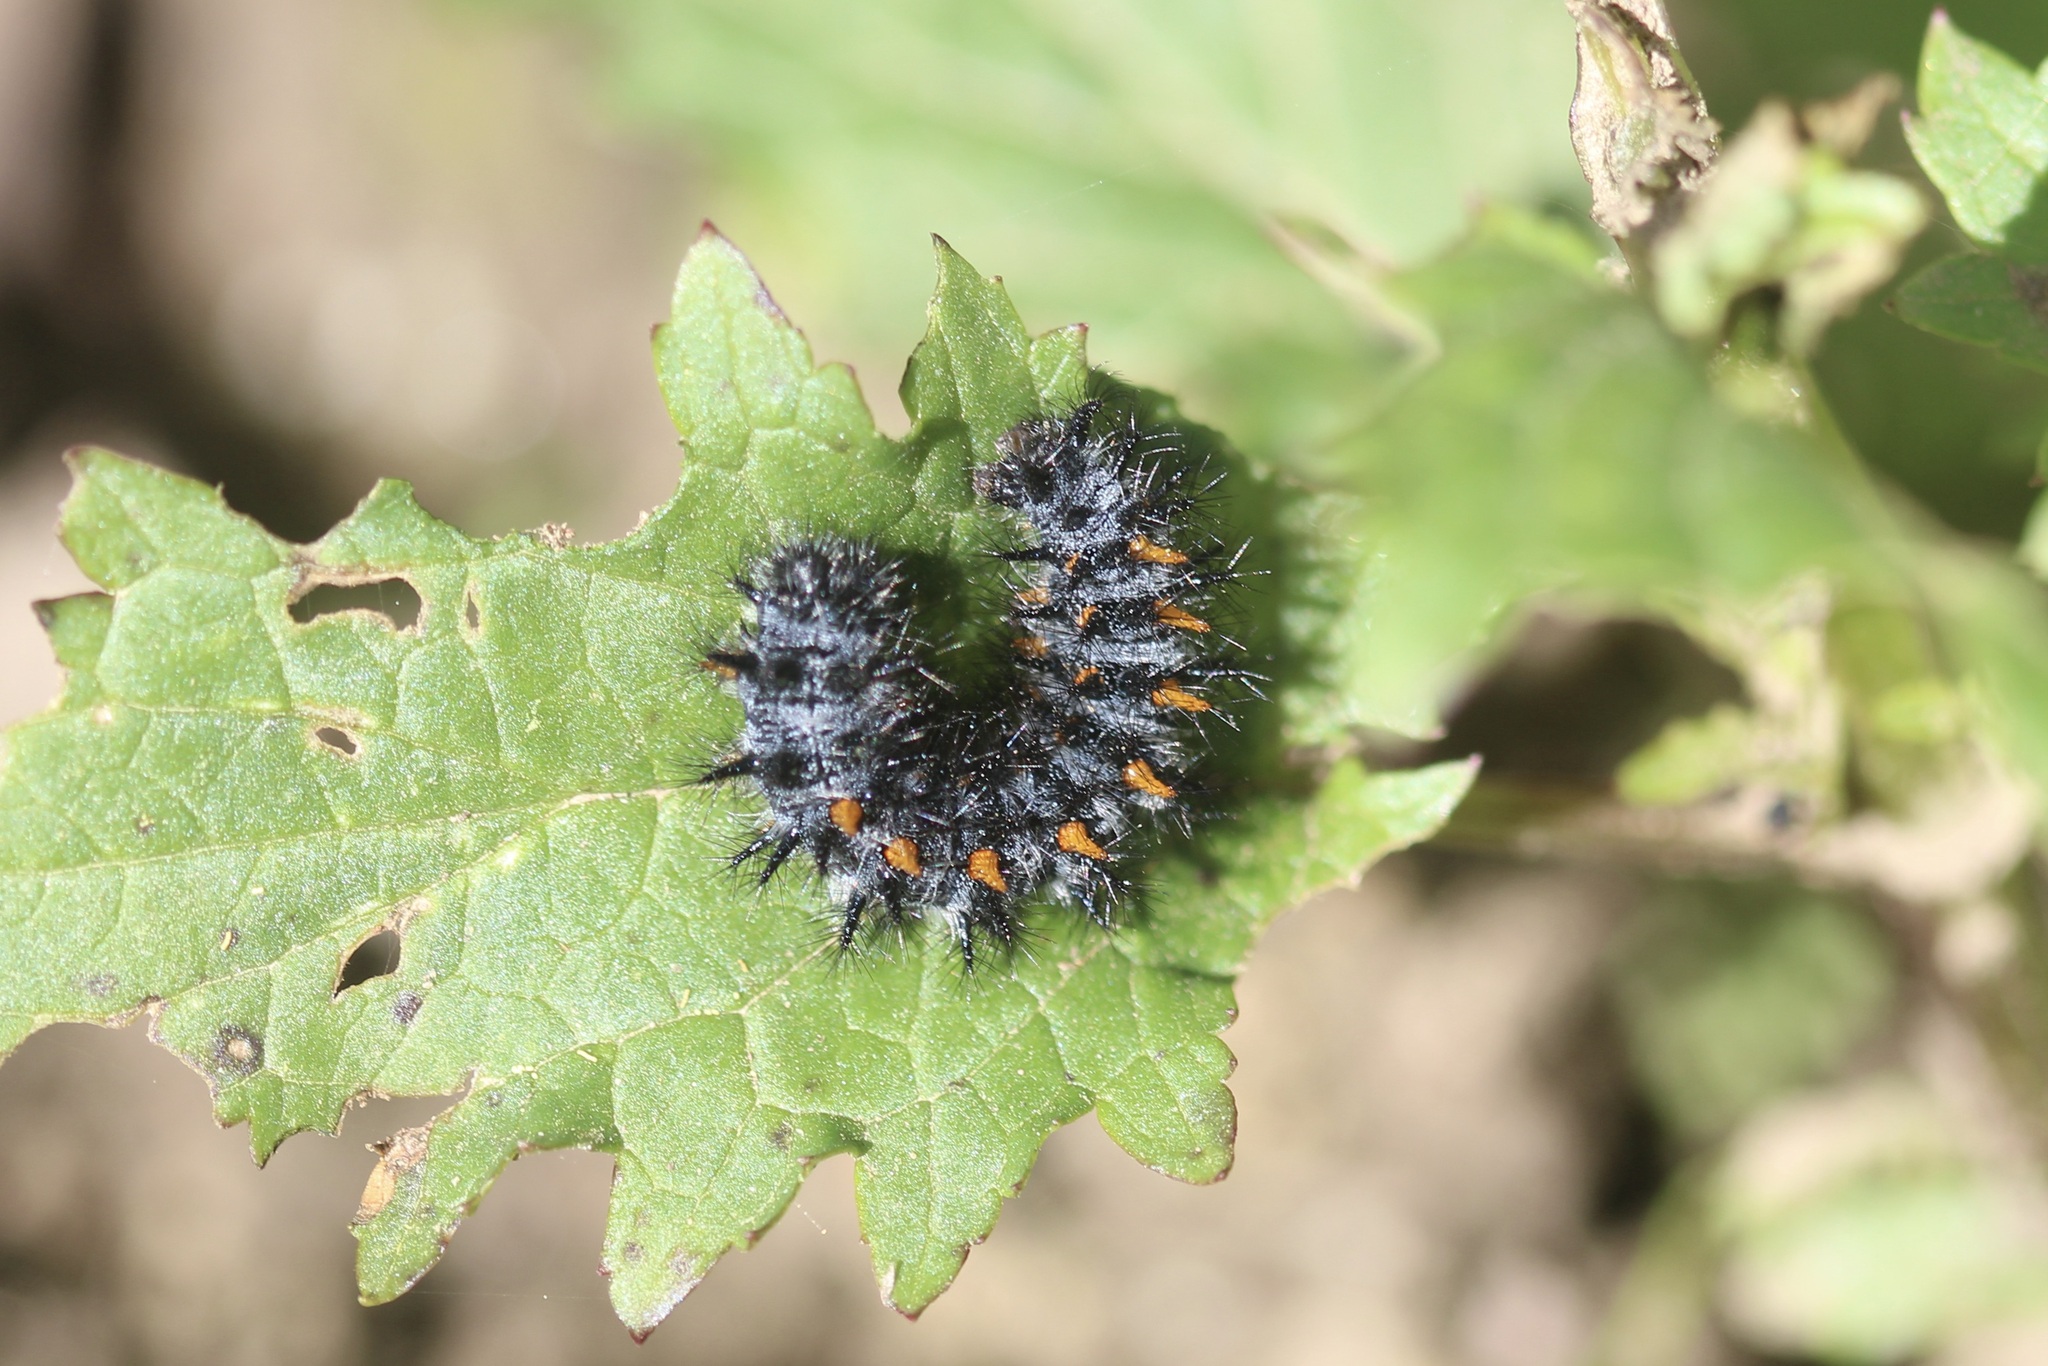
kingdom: Animalia
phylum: Arthropoda
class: Insecta
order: Lepidoptera
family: Nymphalidae
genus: Occidryas
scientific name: Occidryas chalcedona
